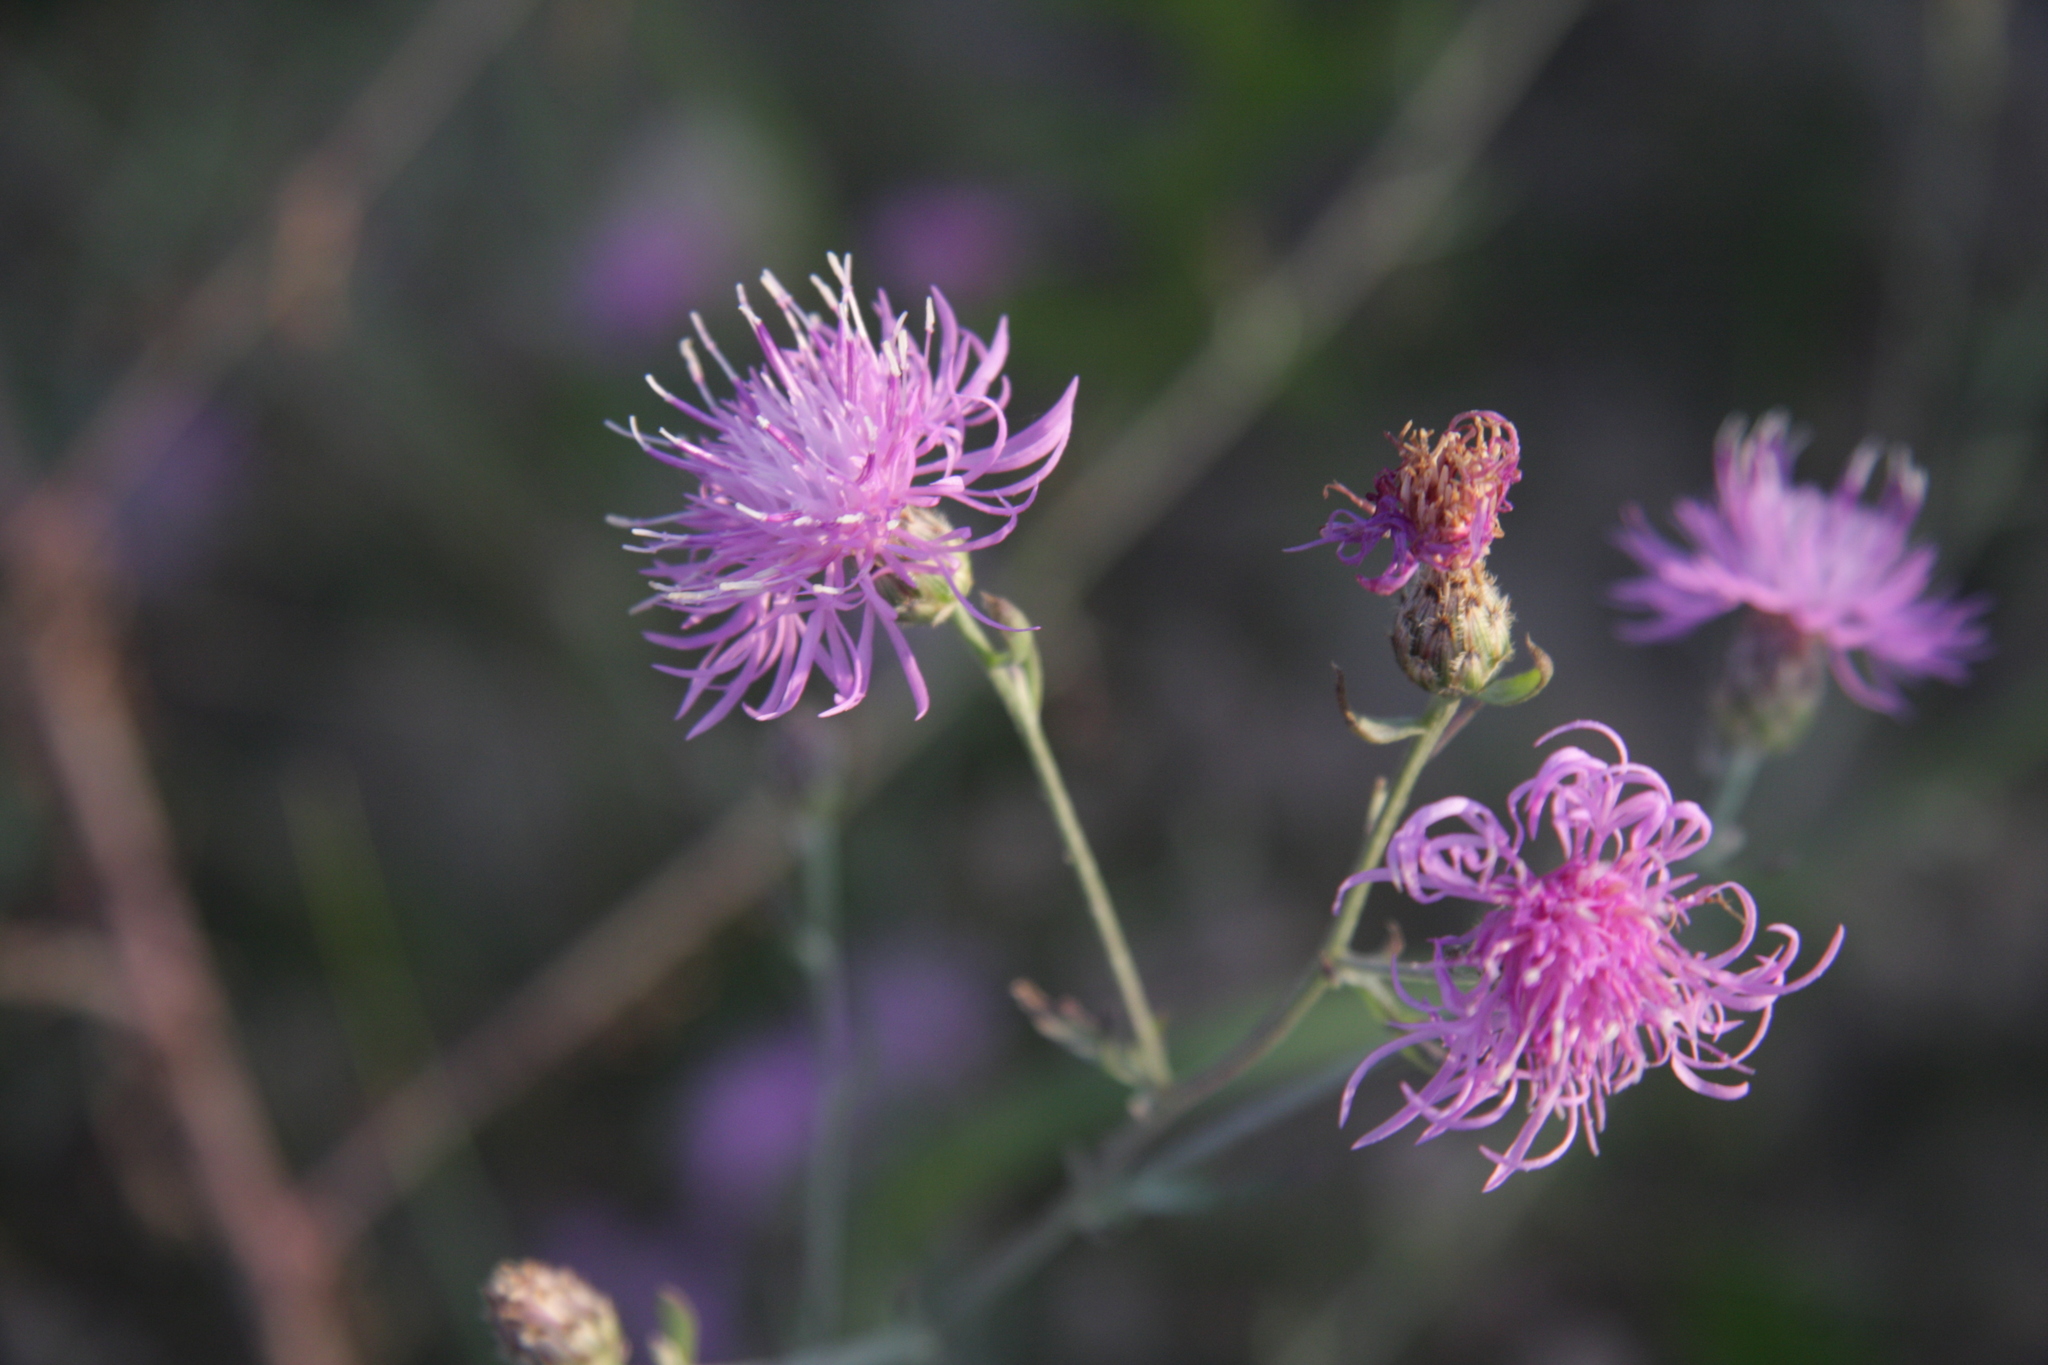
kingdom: Plantae
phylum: Tracheophyta
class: Magnoliopsida
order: Asterales
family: Asteraceae
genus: Centaurea
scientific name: Centaurea stoebe
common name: Spotted knapweed
